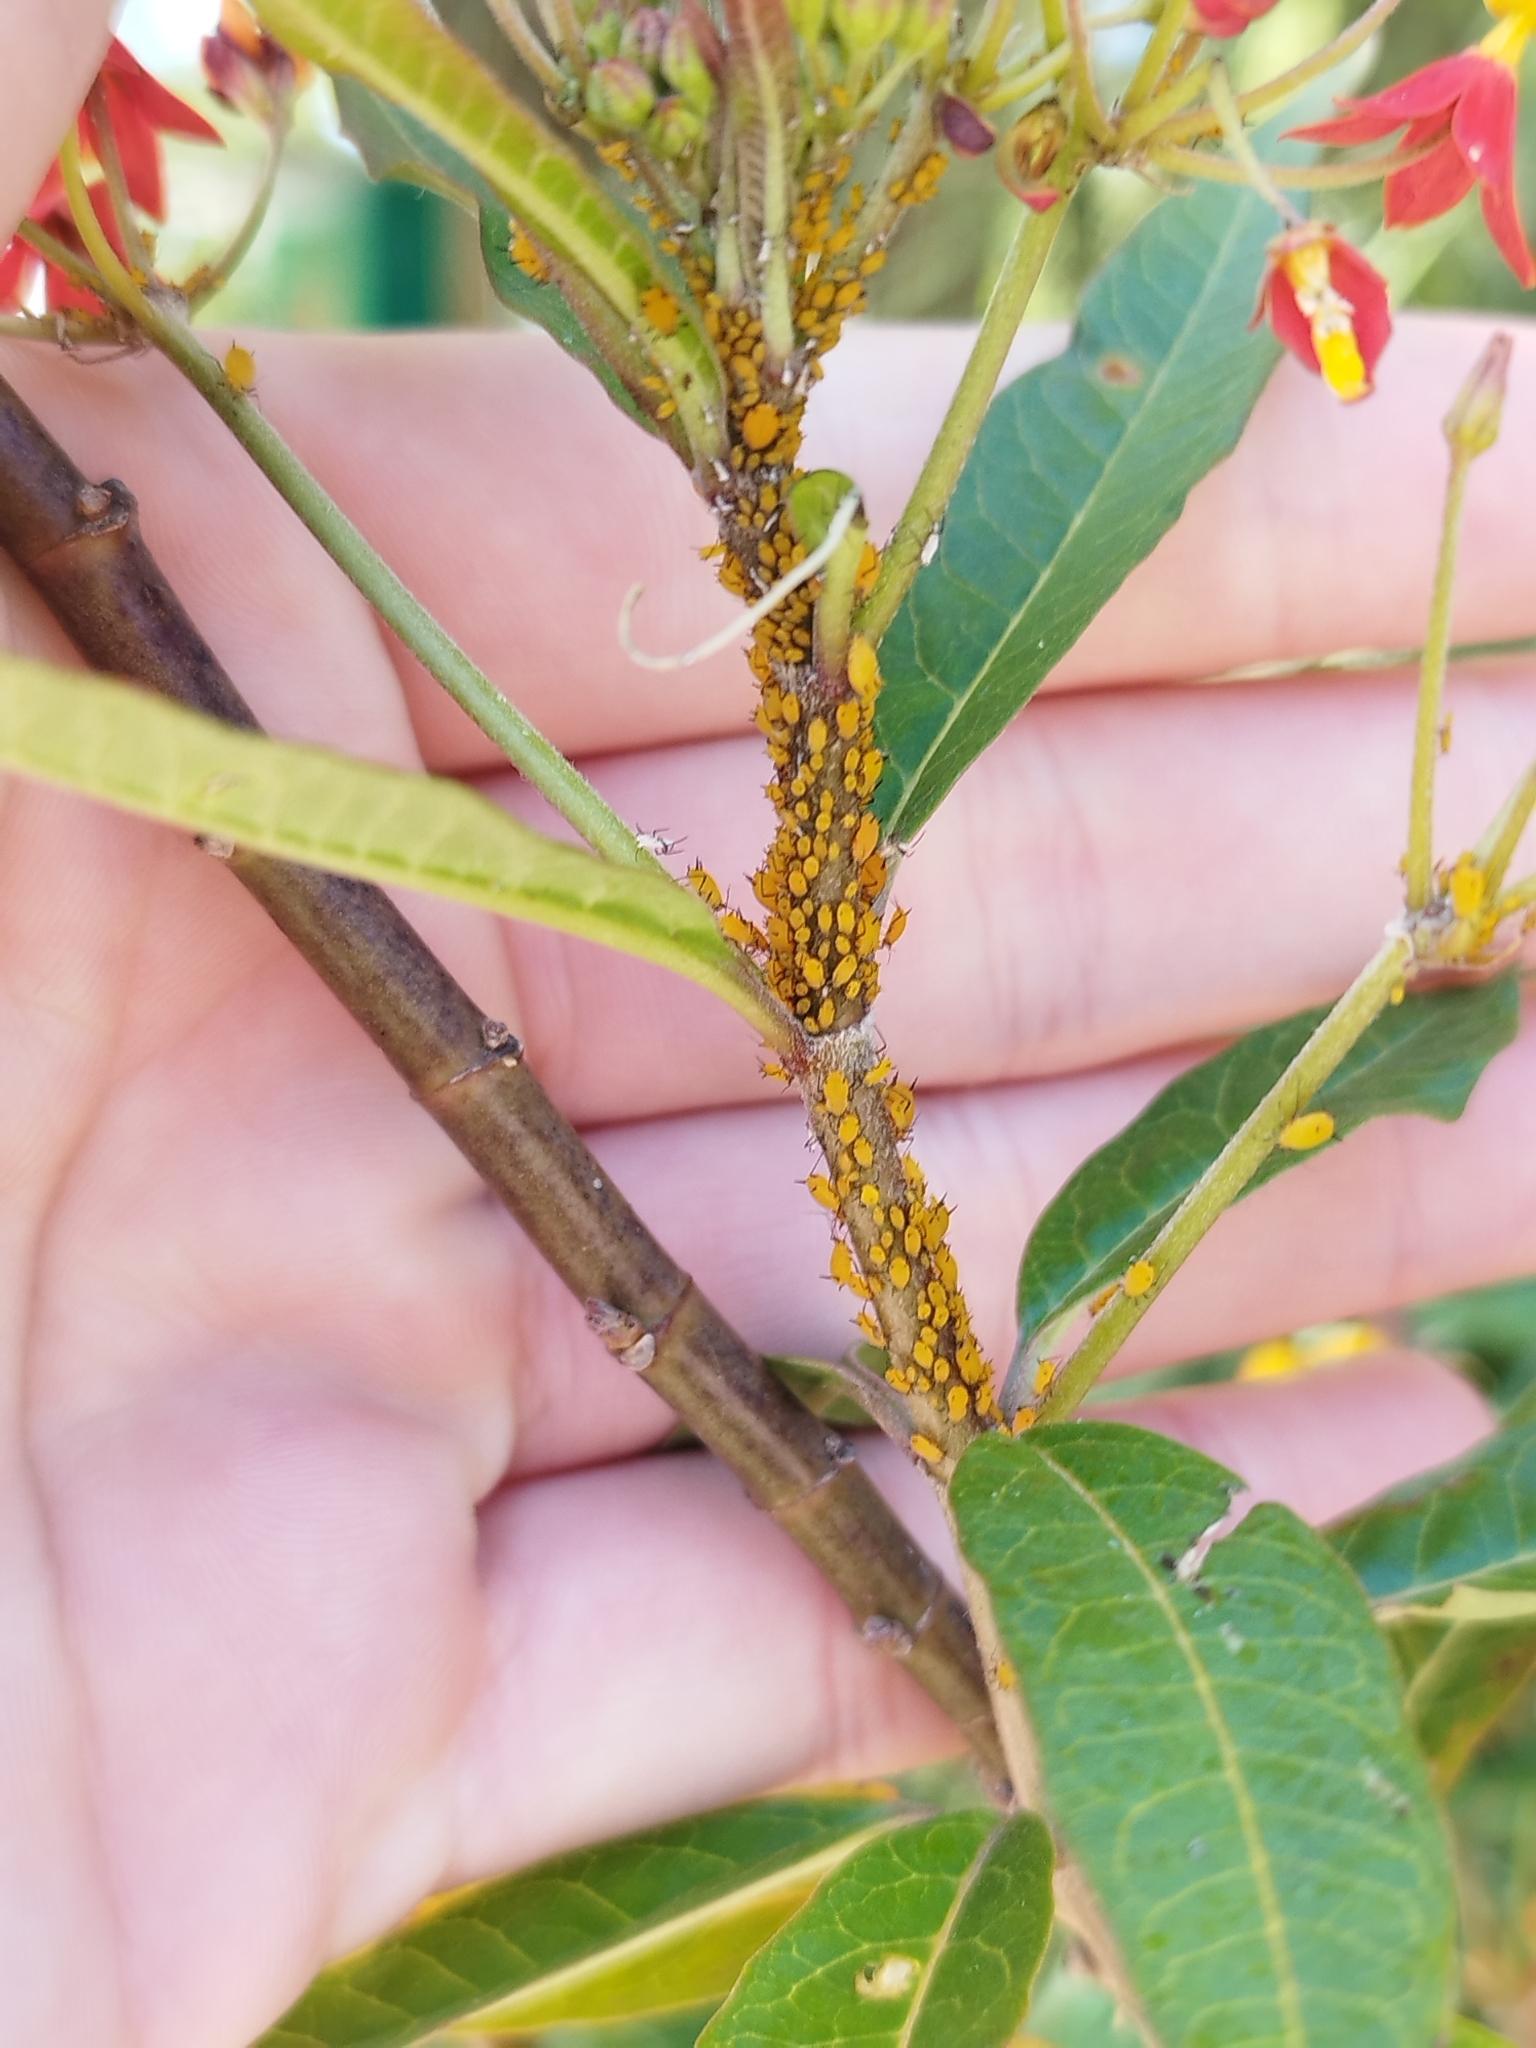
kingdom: Animalia
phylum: Arthropoda
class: Insecta
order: Hemiptera
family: Aphididae
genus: Aphis
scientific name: Aphis nerii
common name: Oleander aphid
